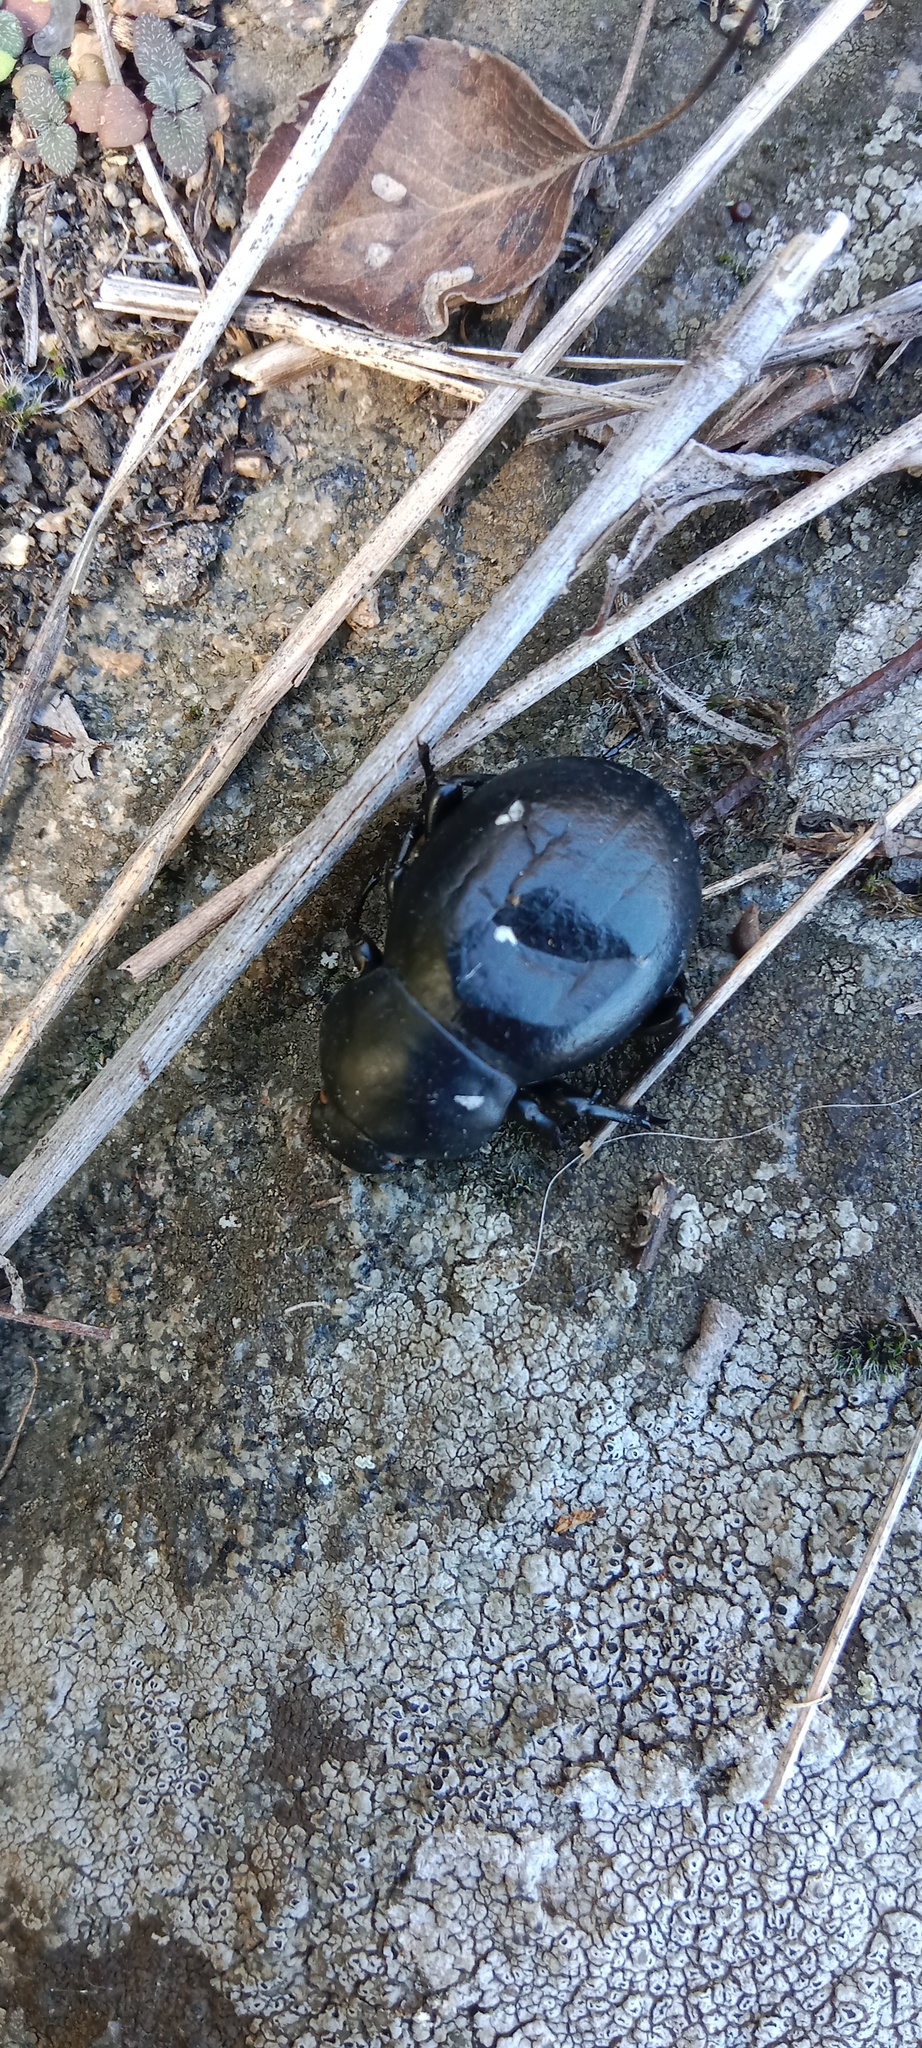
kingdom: Animalia
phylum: Arthropoda
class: Insecta
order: Coleoptera
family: Tenebrionidae
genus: Gnaptor
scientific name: Gnaptor spinimanus
